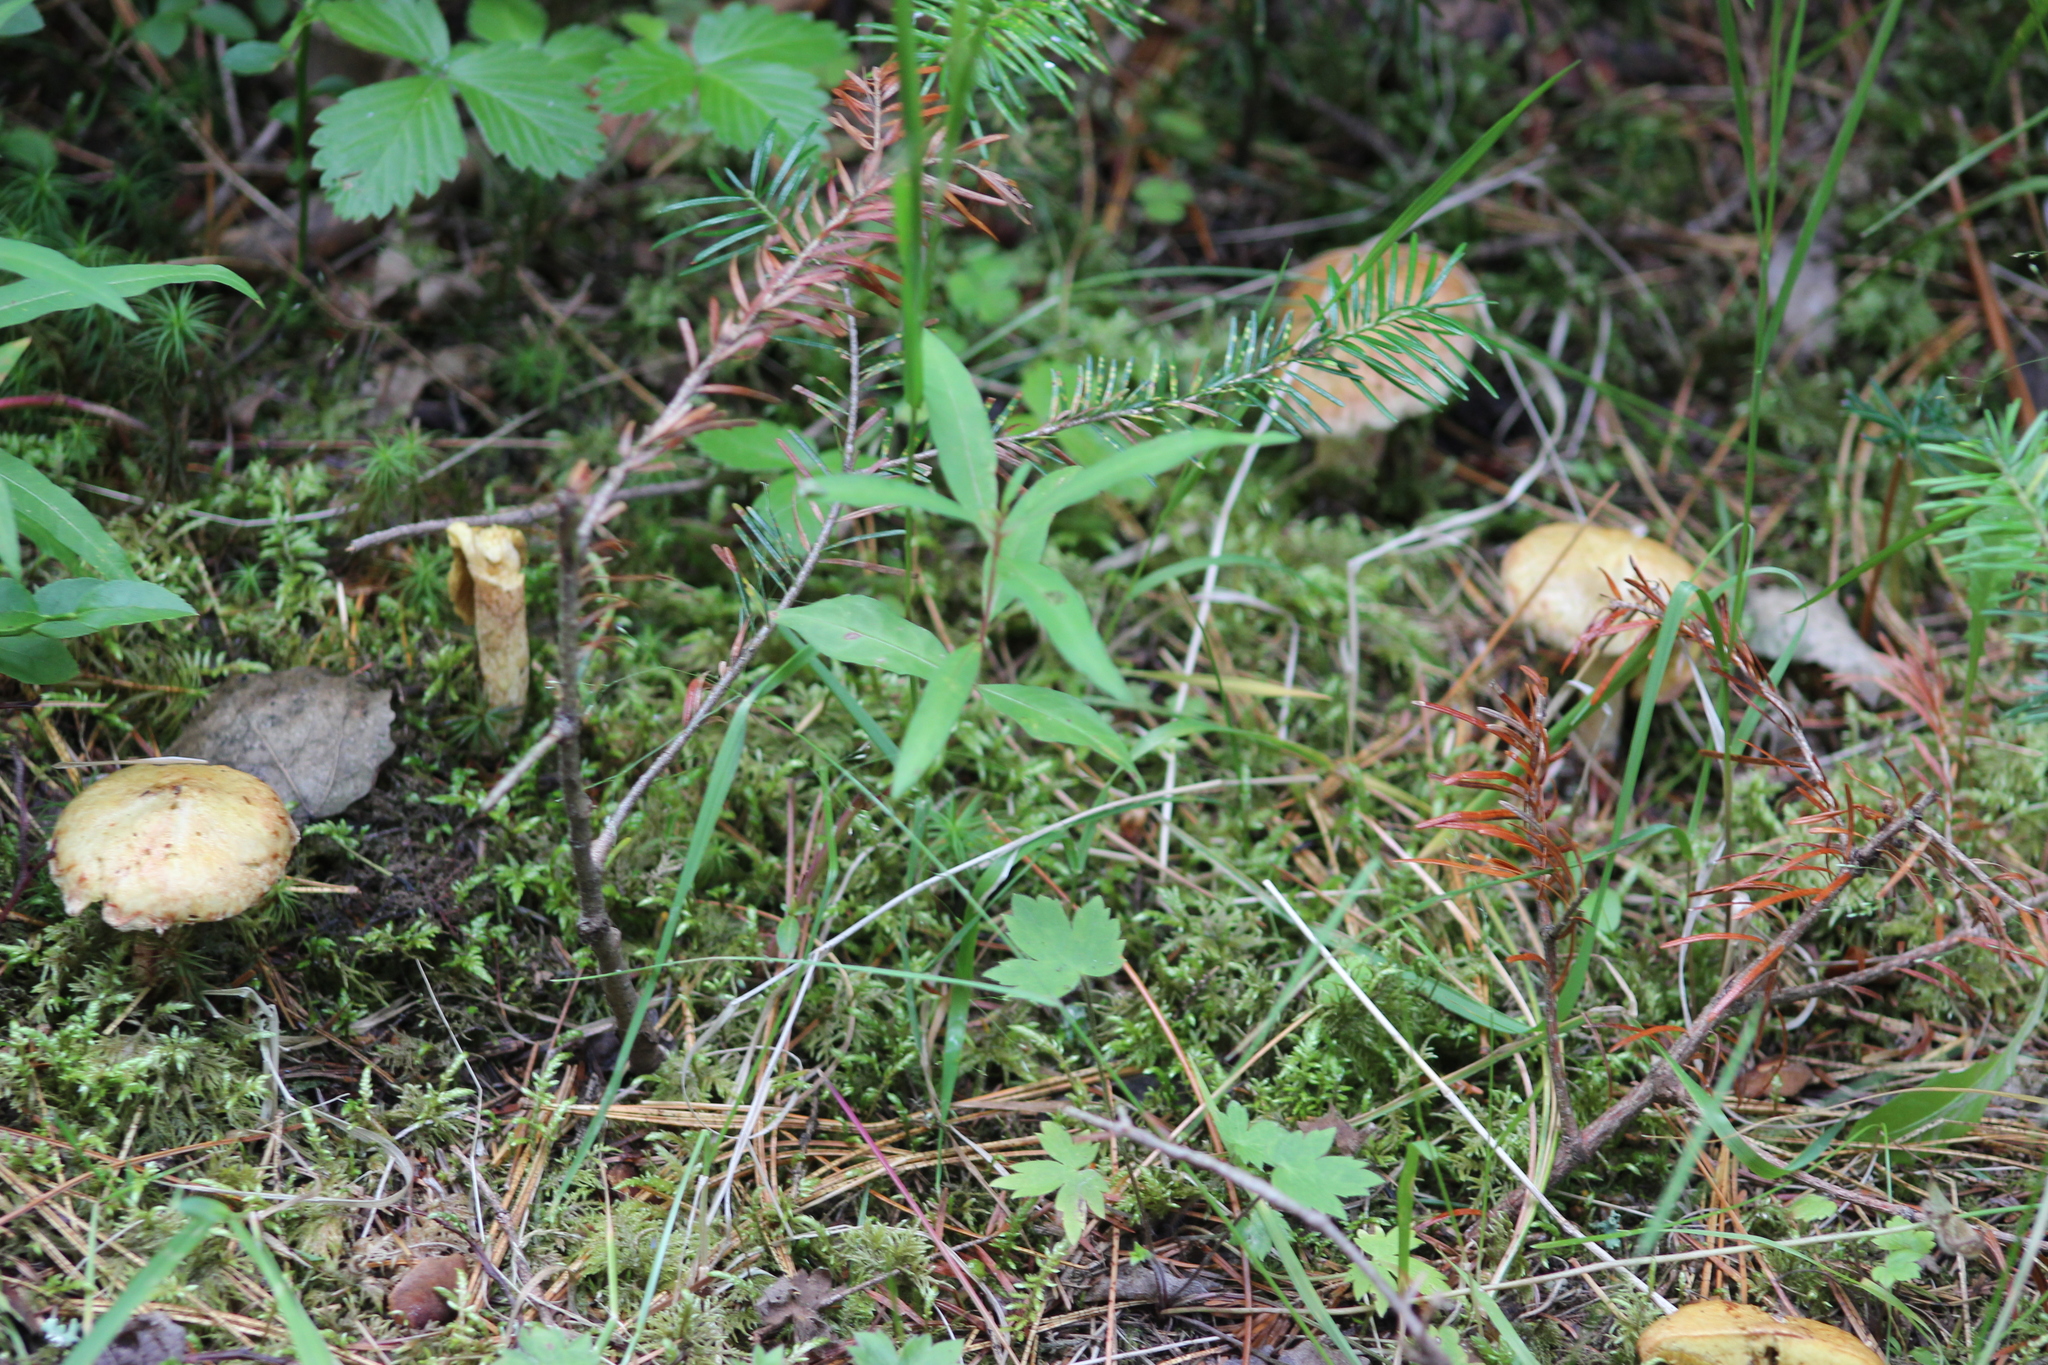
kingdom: Fungi
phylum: Basidiomycota
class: Agaricomycetes
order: Boletales
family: Suillaceae
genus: Suillus
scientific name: Suillus americanus
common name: Chicken fat mushroom
